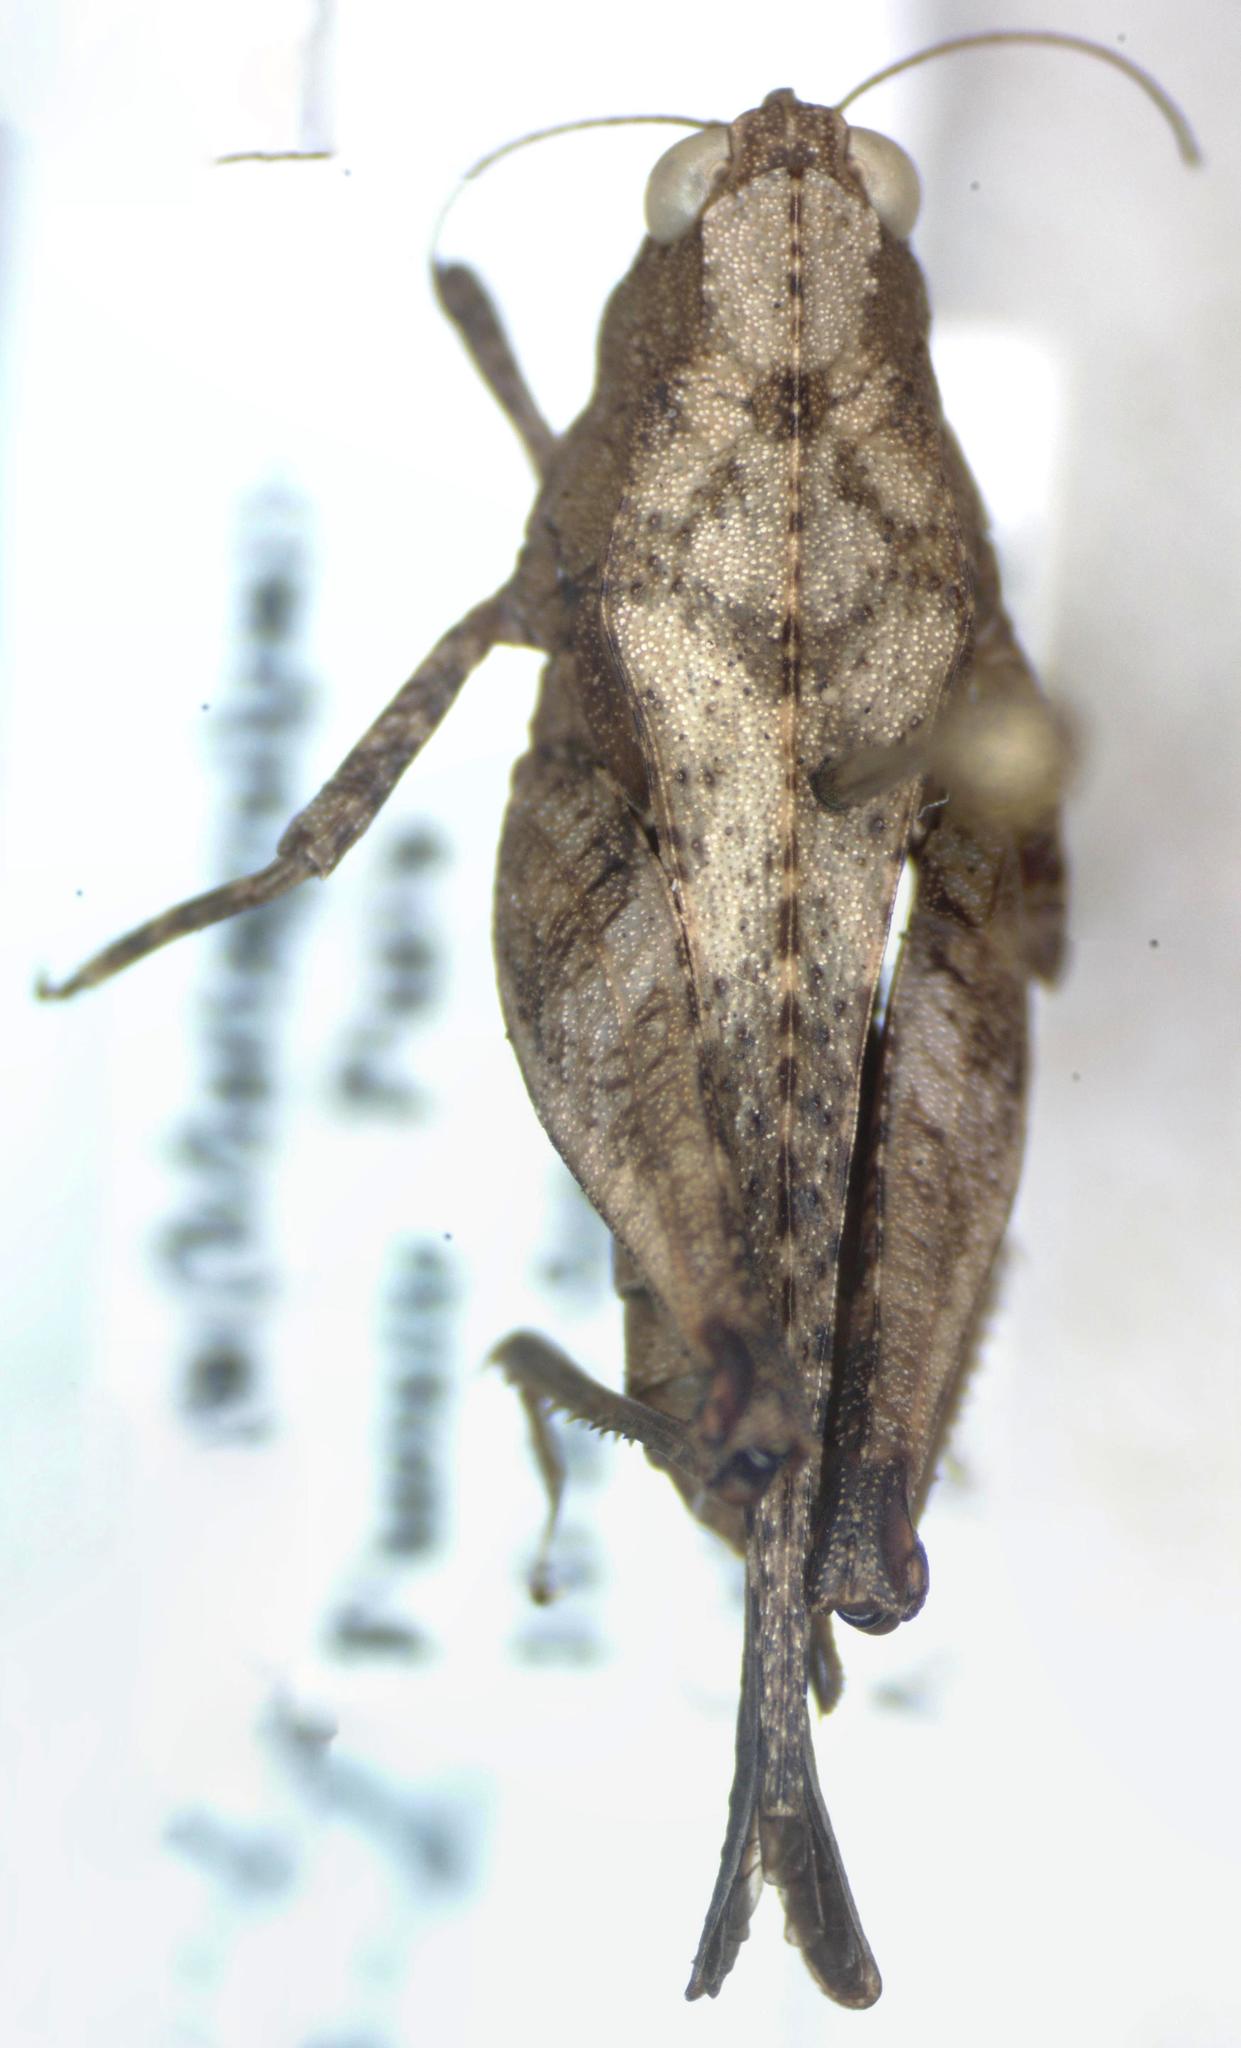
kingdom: Animalia
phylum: Arthropoda
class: Insecta
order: Orthoptera
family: Tetrigidae
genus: Tettigidea
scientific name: Tettigidea
